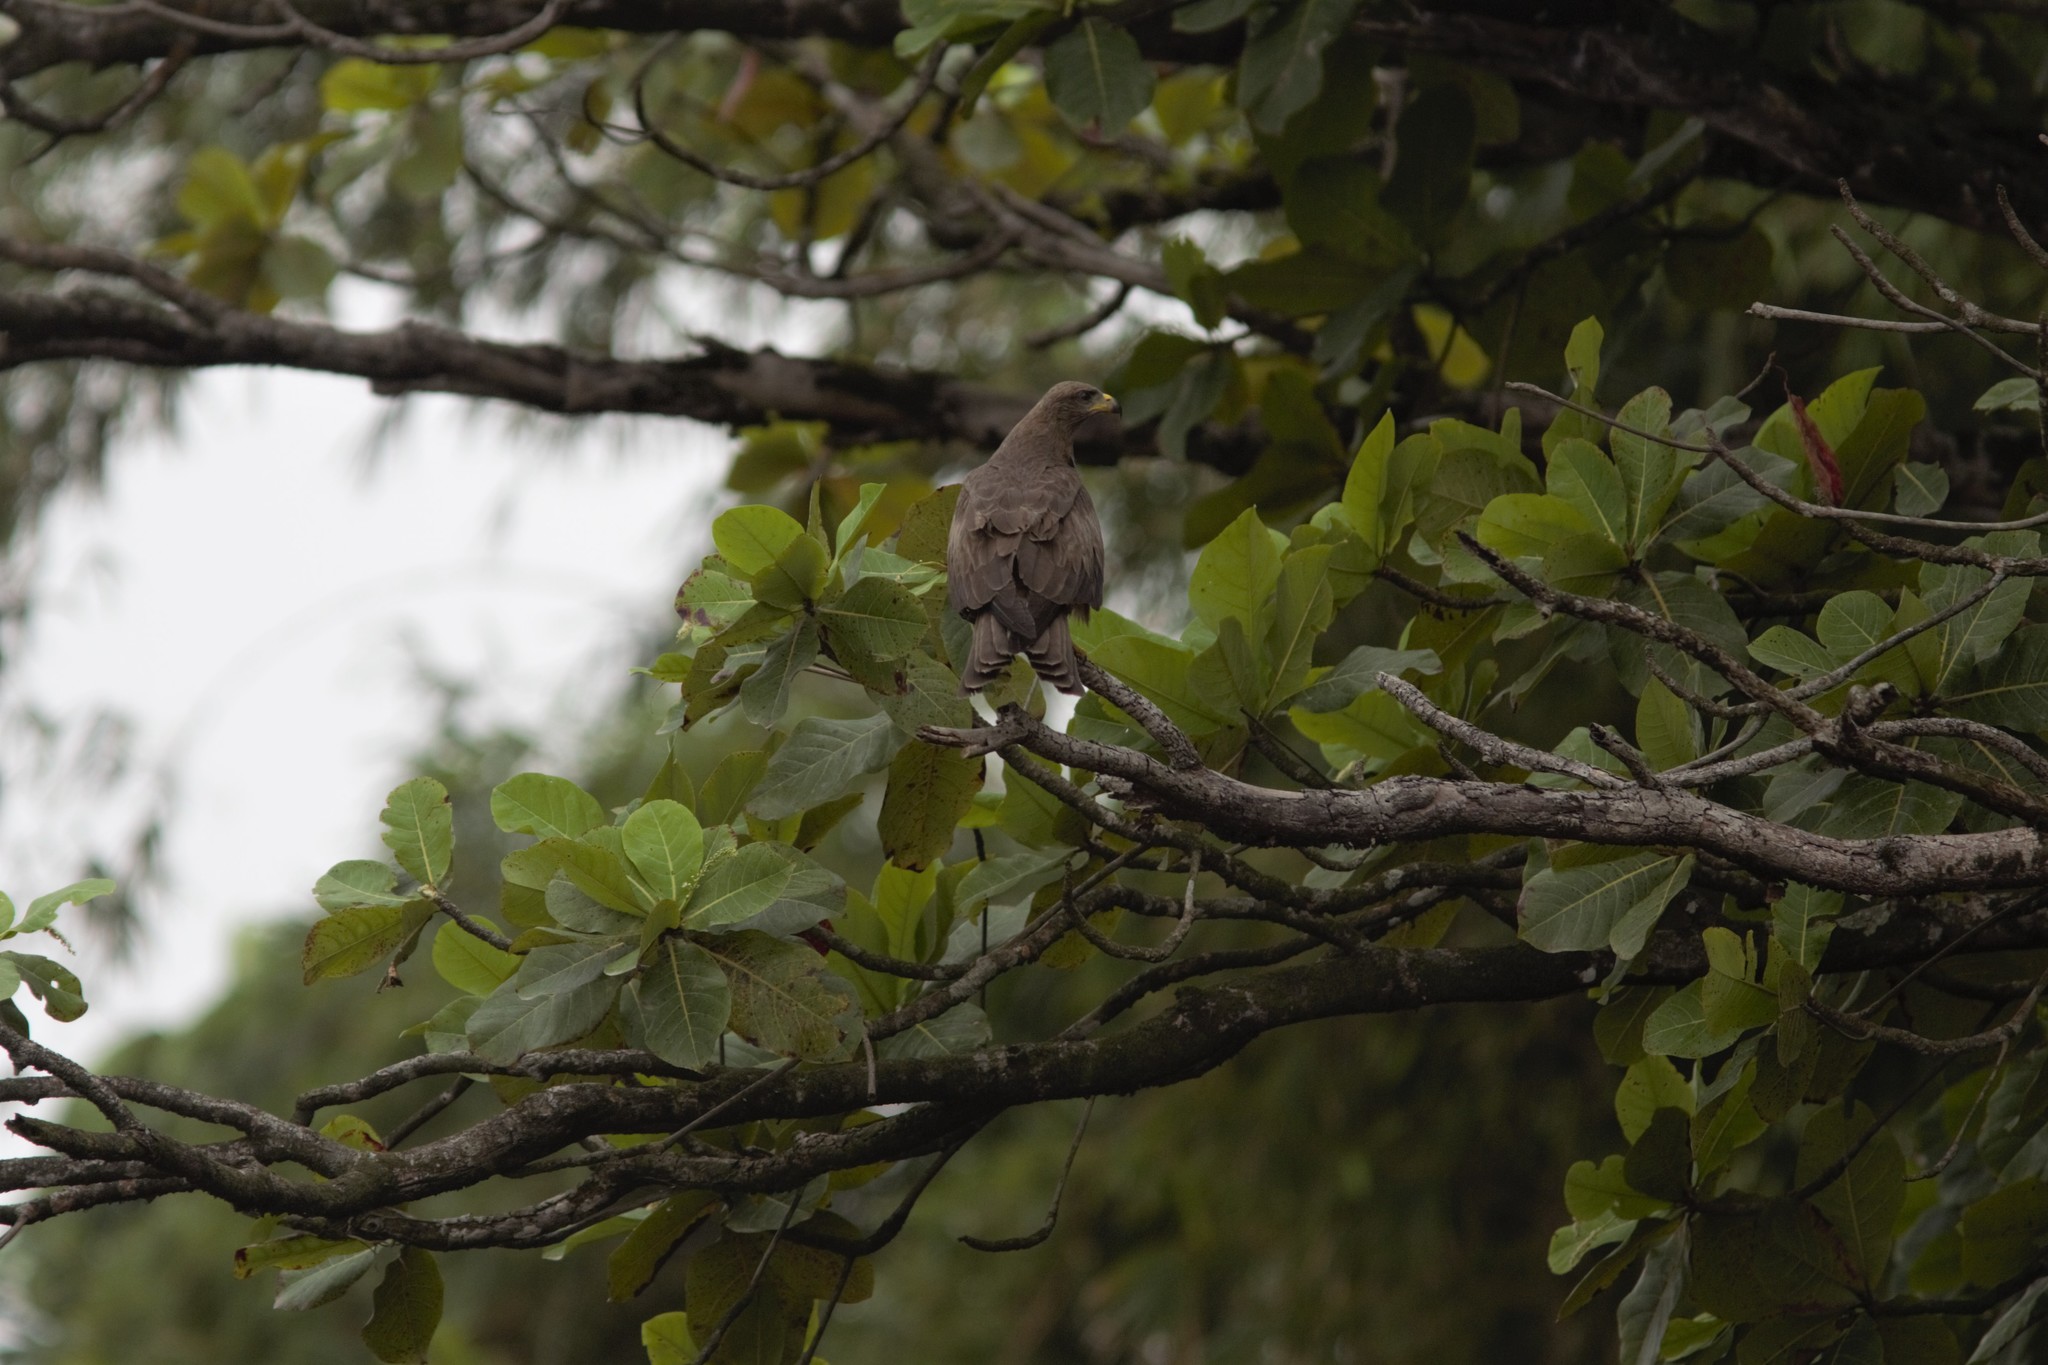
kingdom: Animalia
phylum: Chordata
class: Aves
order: Accipitriformes
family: Accipitridae
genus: Milvus
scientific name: Milvus migrans
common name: Black kite
